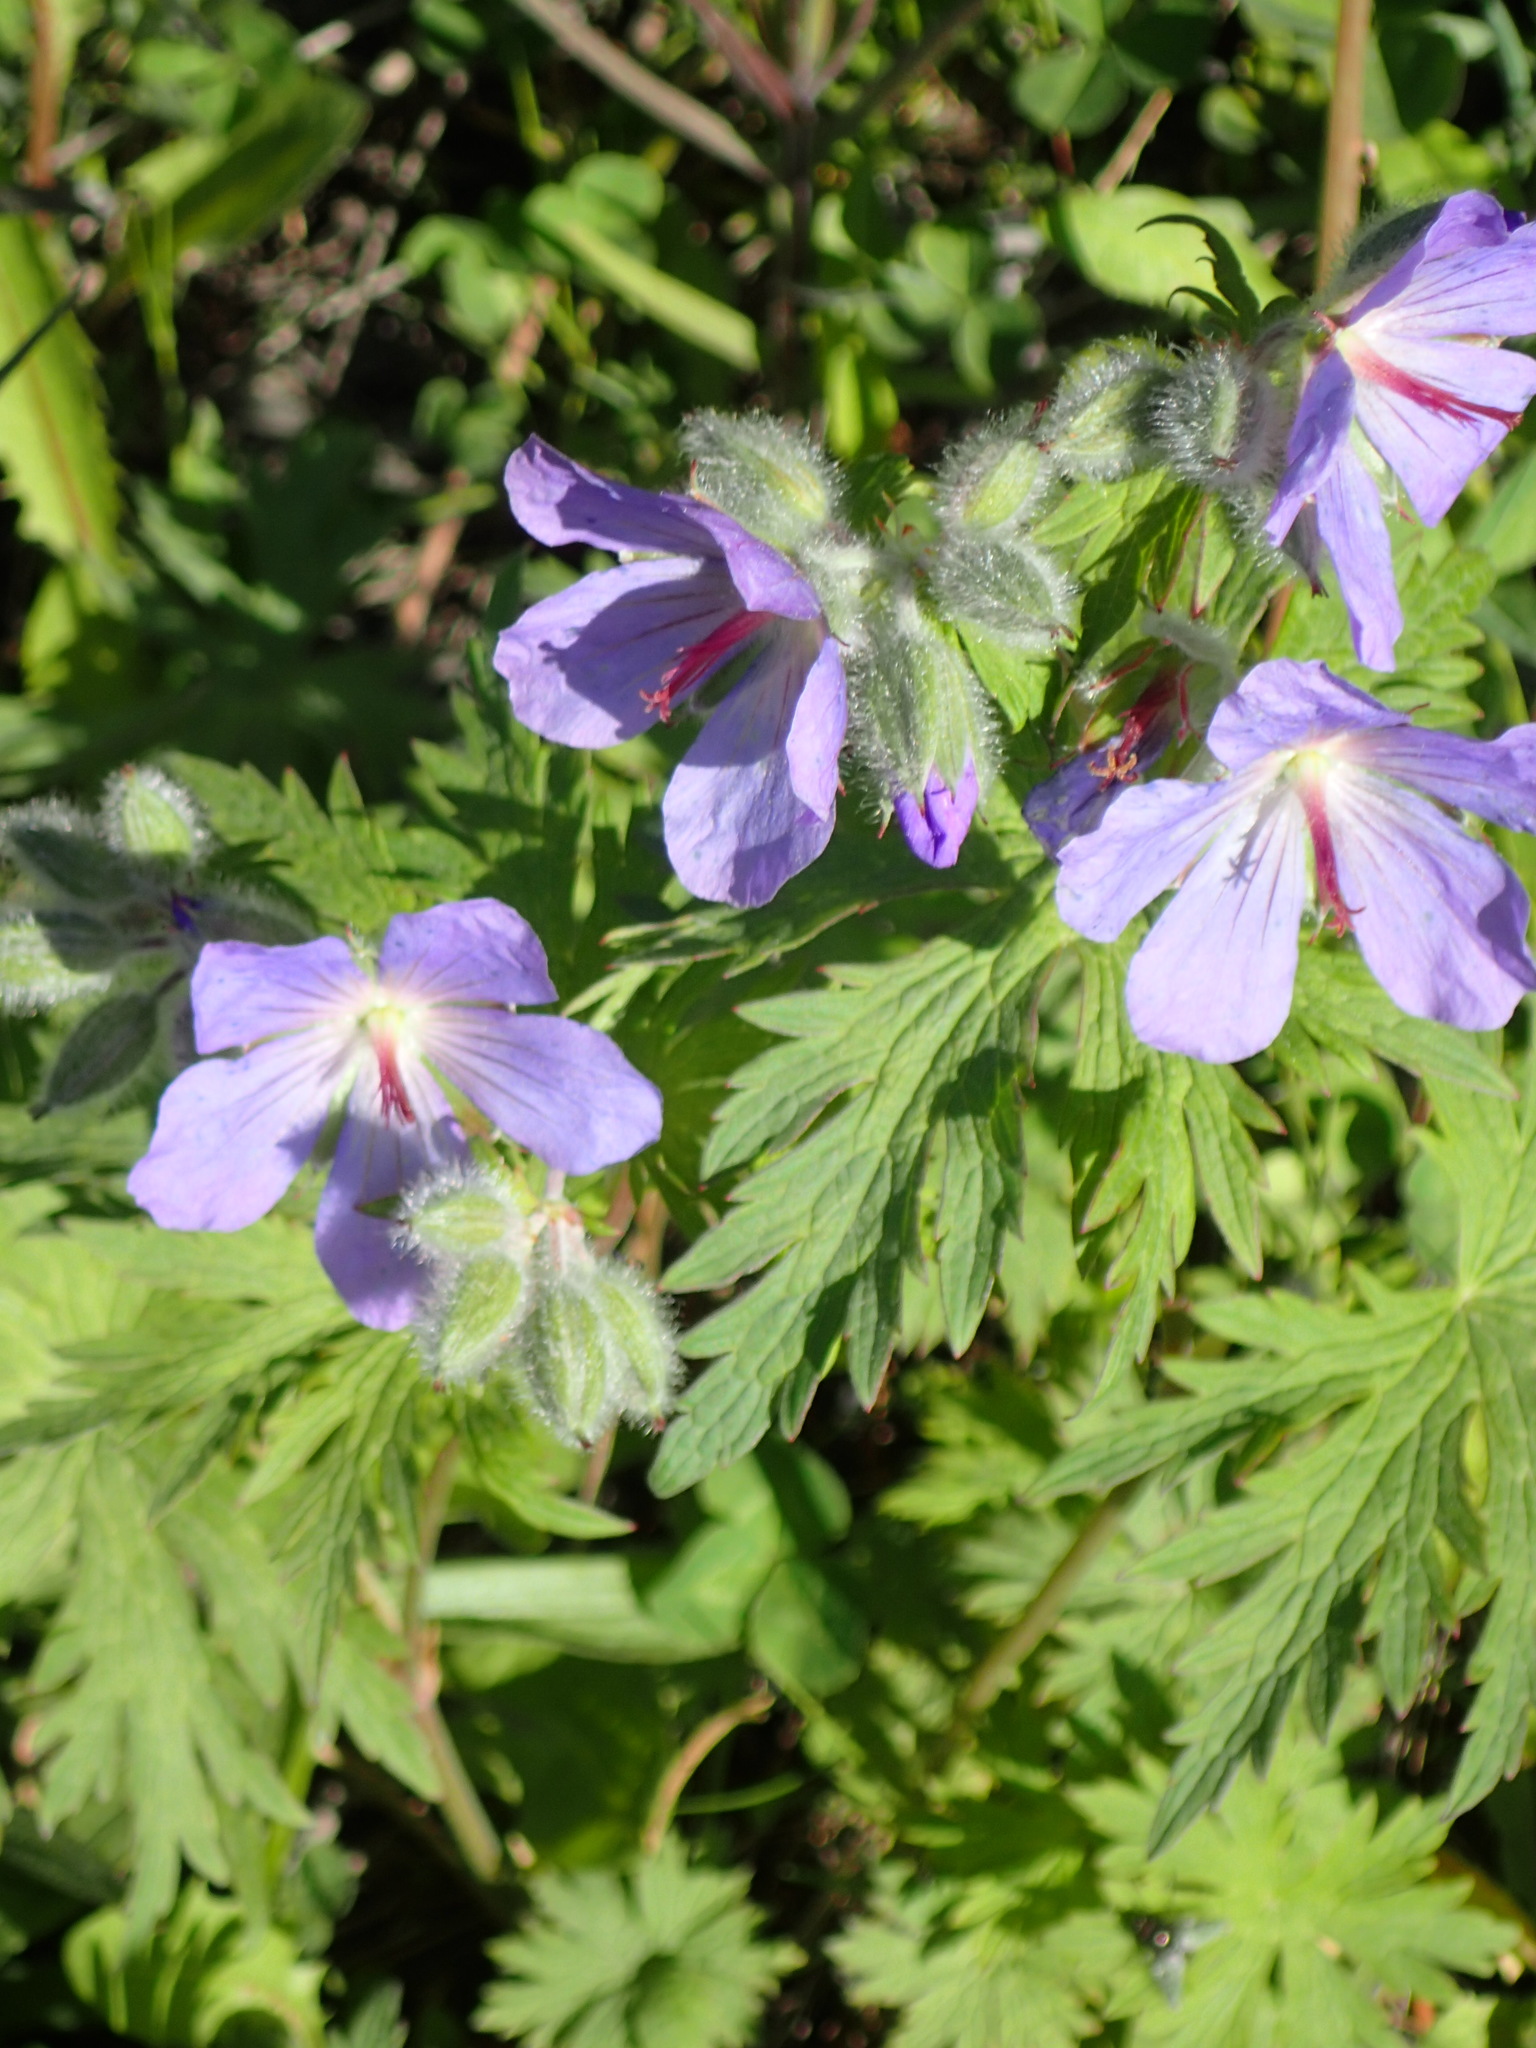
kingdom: Plantae
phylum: Tracheophyta
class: Magnoliopsida
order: Geraniales
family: Geraniaceae
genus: Geranium
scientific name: Geranium erianthum
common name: Northern crane's-bill
